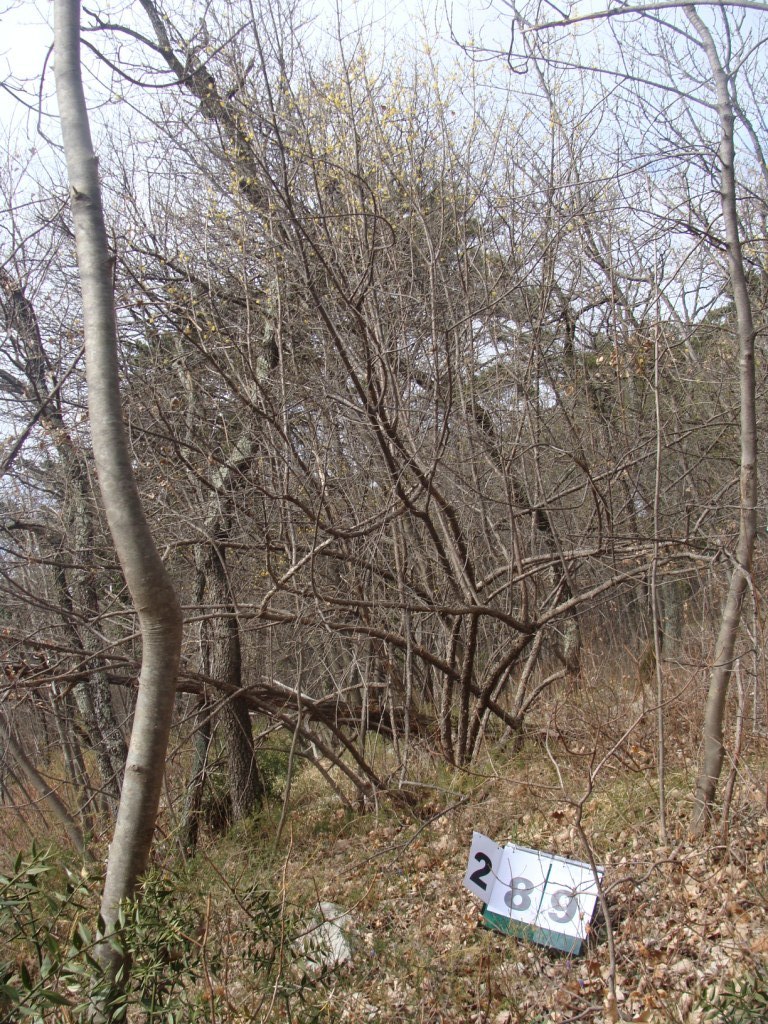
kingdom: Plantae
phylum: Tracheophyta
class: Magnoliopsida
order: Cornales
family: Cornaceae
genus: Cornus
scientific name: Cornus mas
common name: Cornelian-cherry
